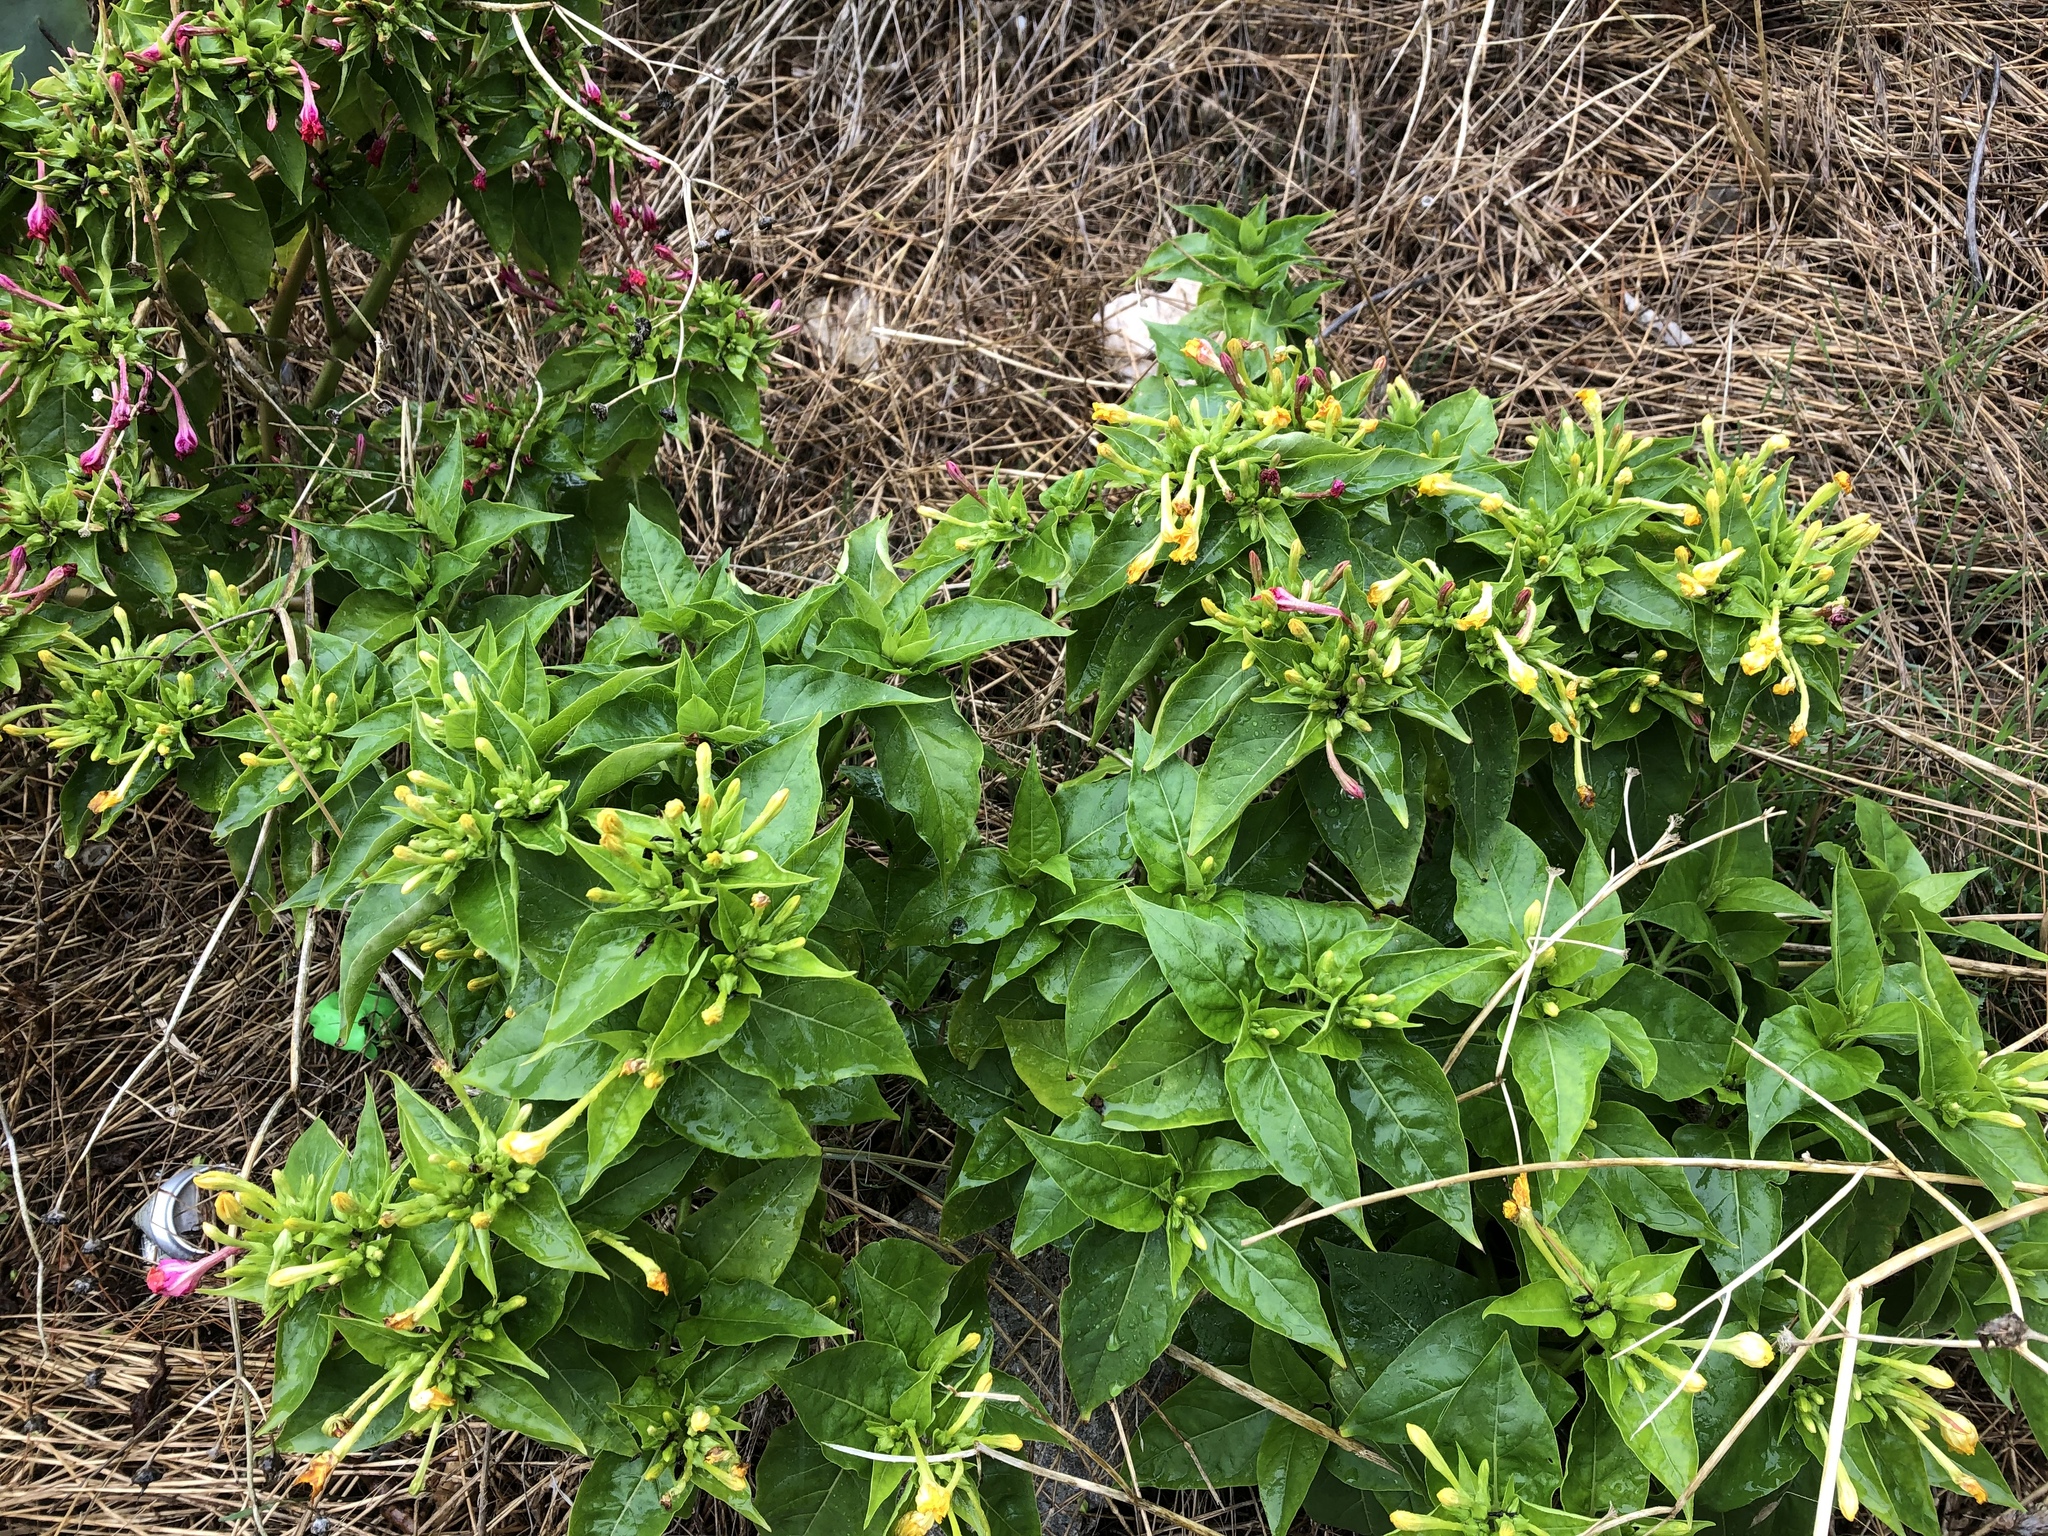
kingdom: Plantae
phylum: Tracheophyta
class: Magnoliopsida
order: Caryophyllales
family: Nyctaginaceae
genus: Mirabilis
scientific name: Mirabilis jalapa
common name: Marvel-of-peru
